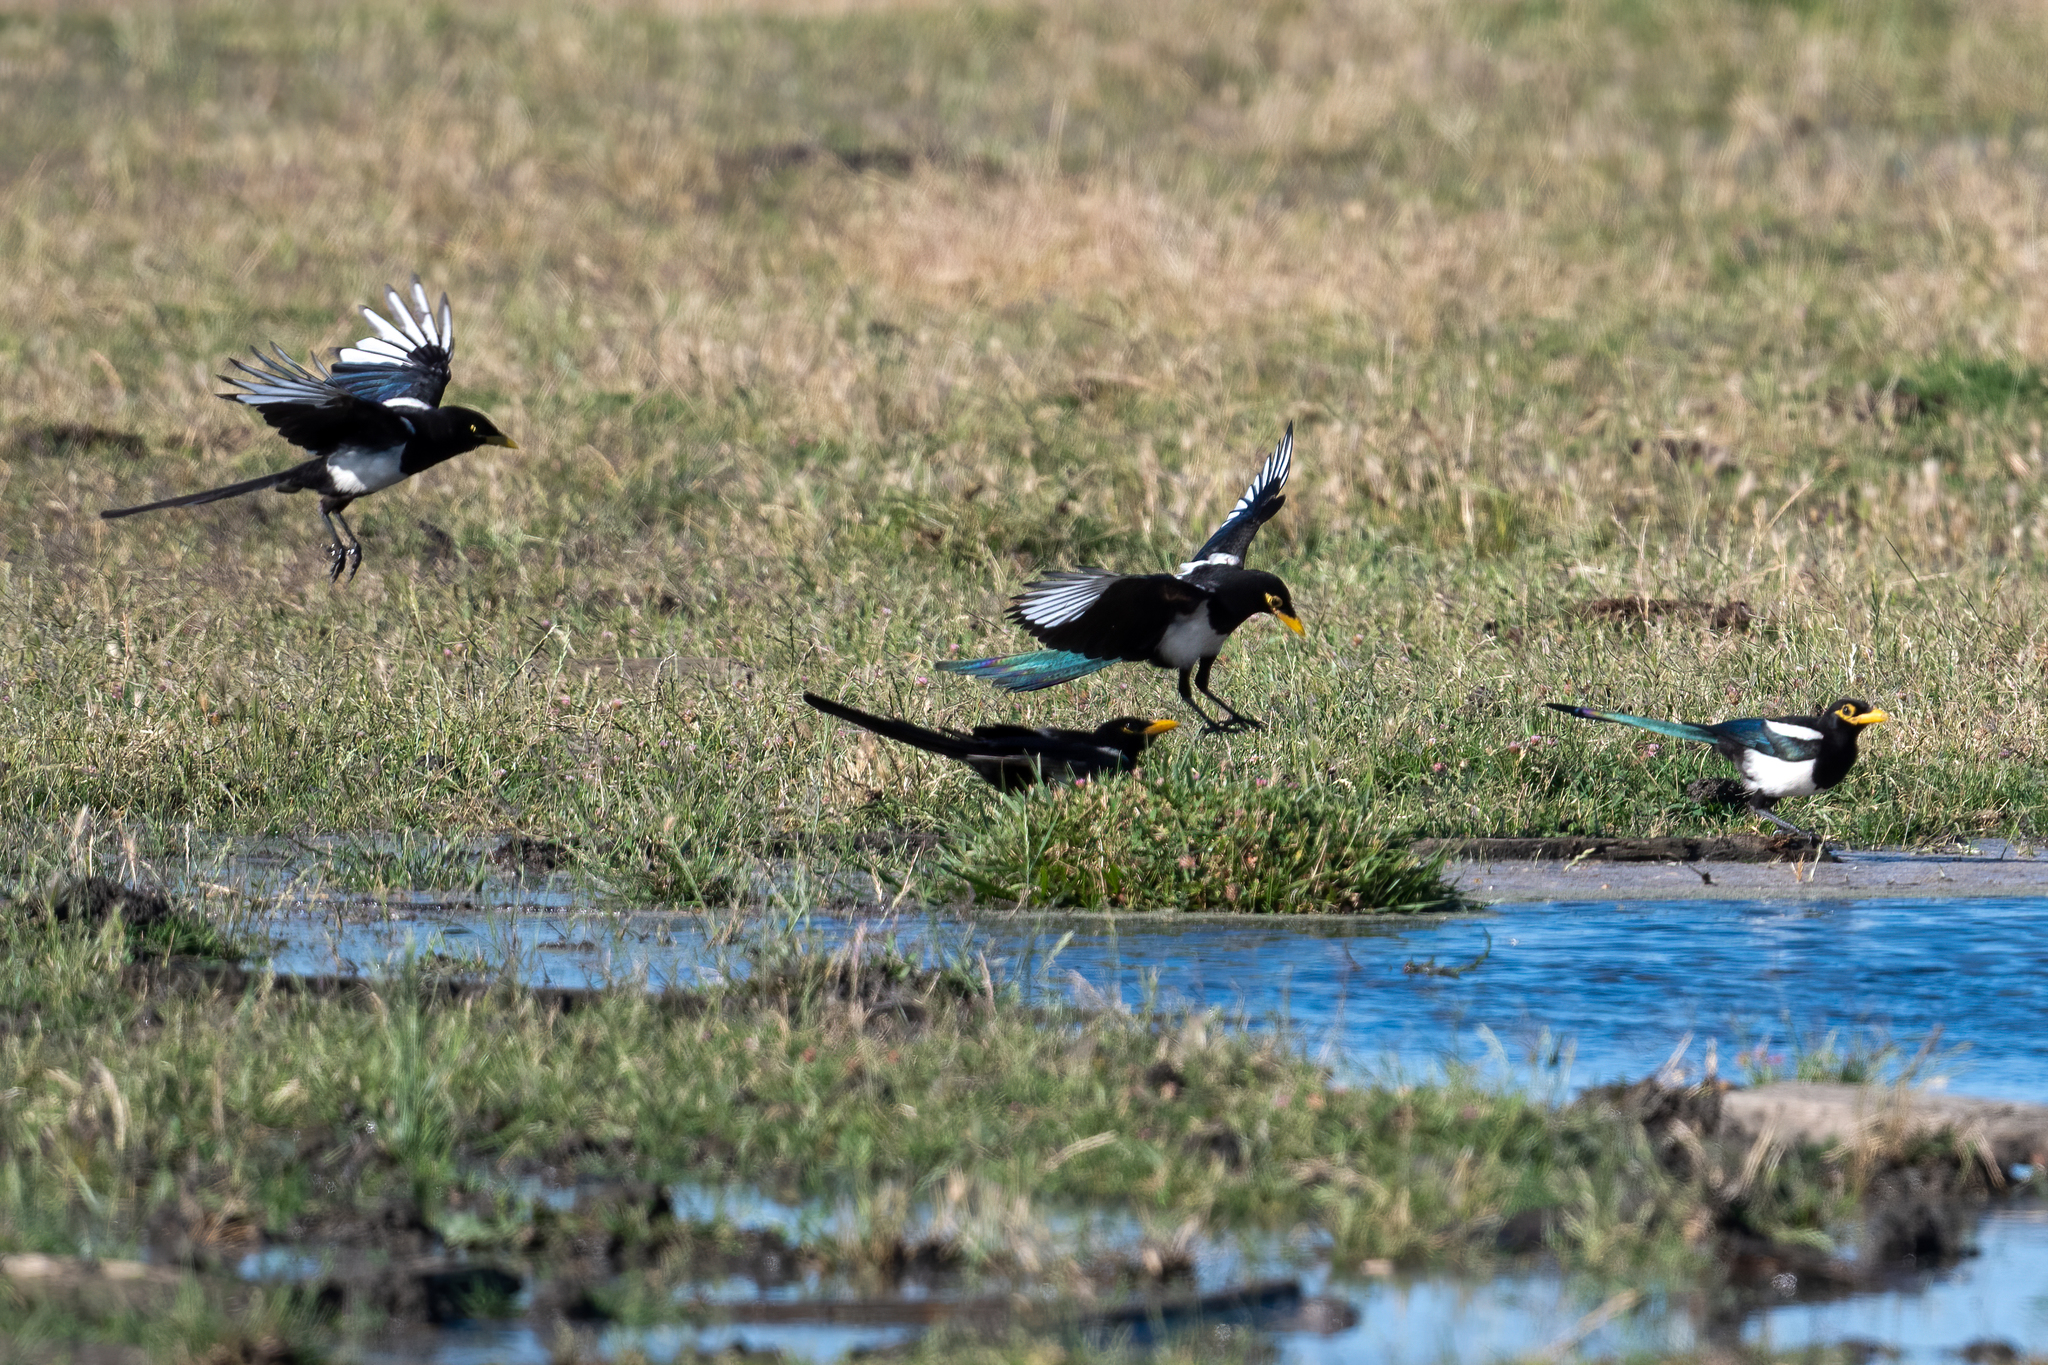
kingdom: Animalia
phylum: Chordata
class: Aves
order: Passeriformes
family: Corvidae
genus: Pica
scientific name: Pica nuttalli
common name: Yellow-billed magpie
